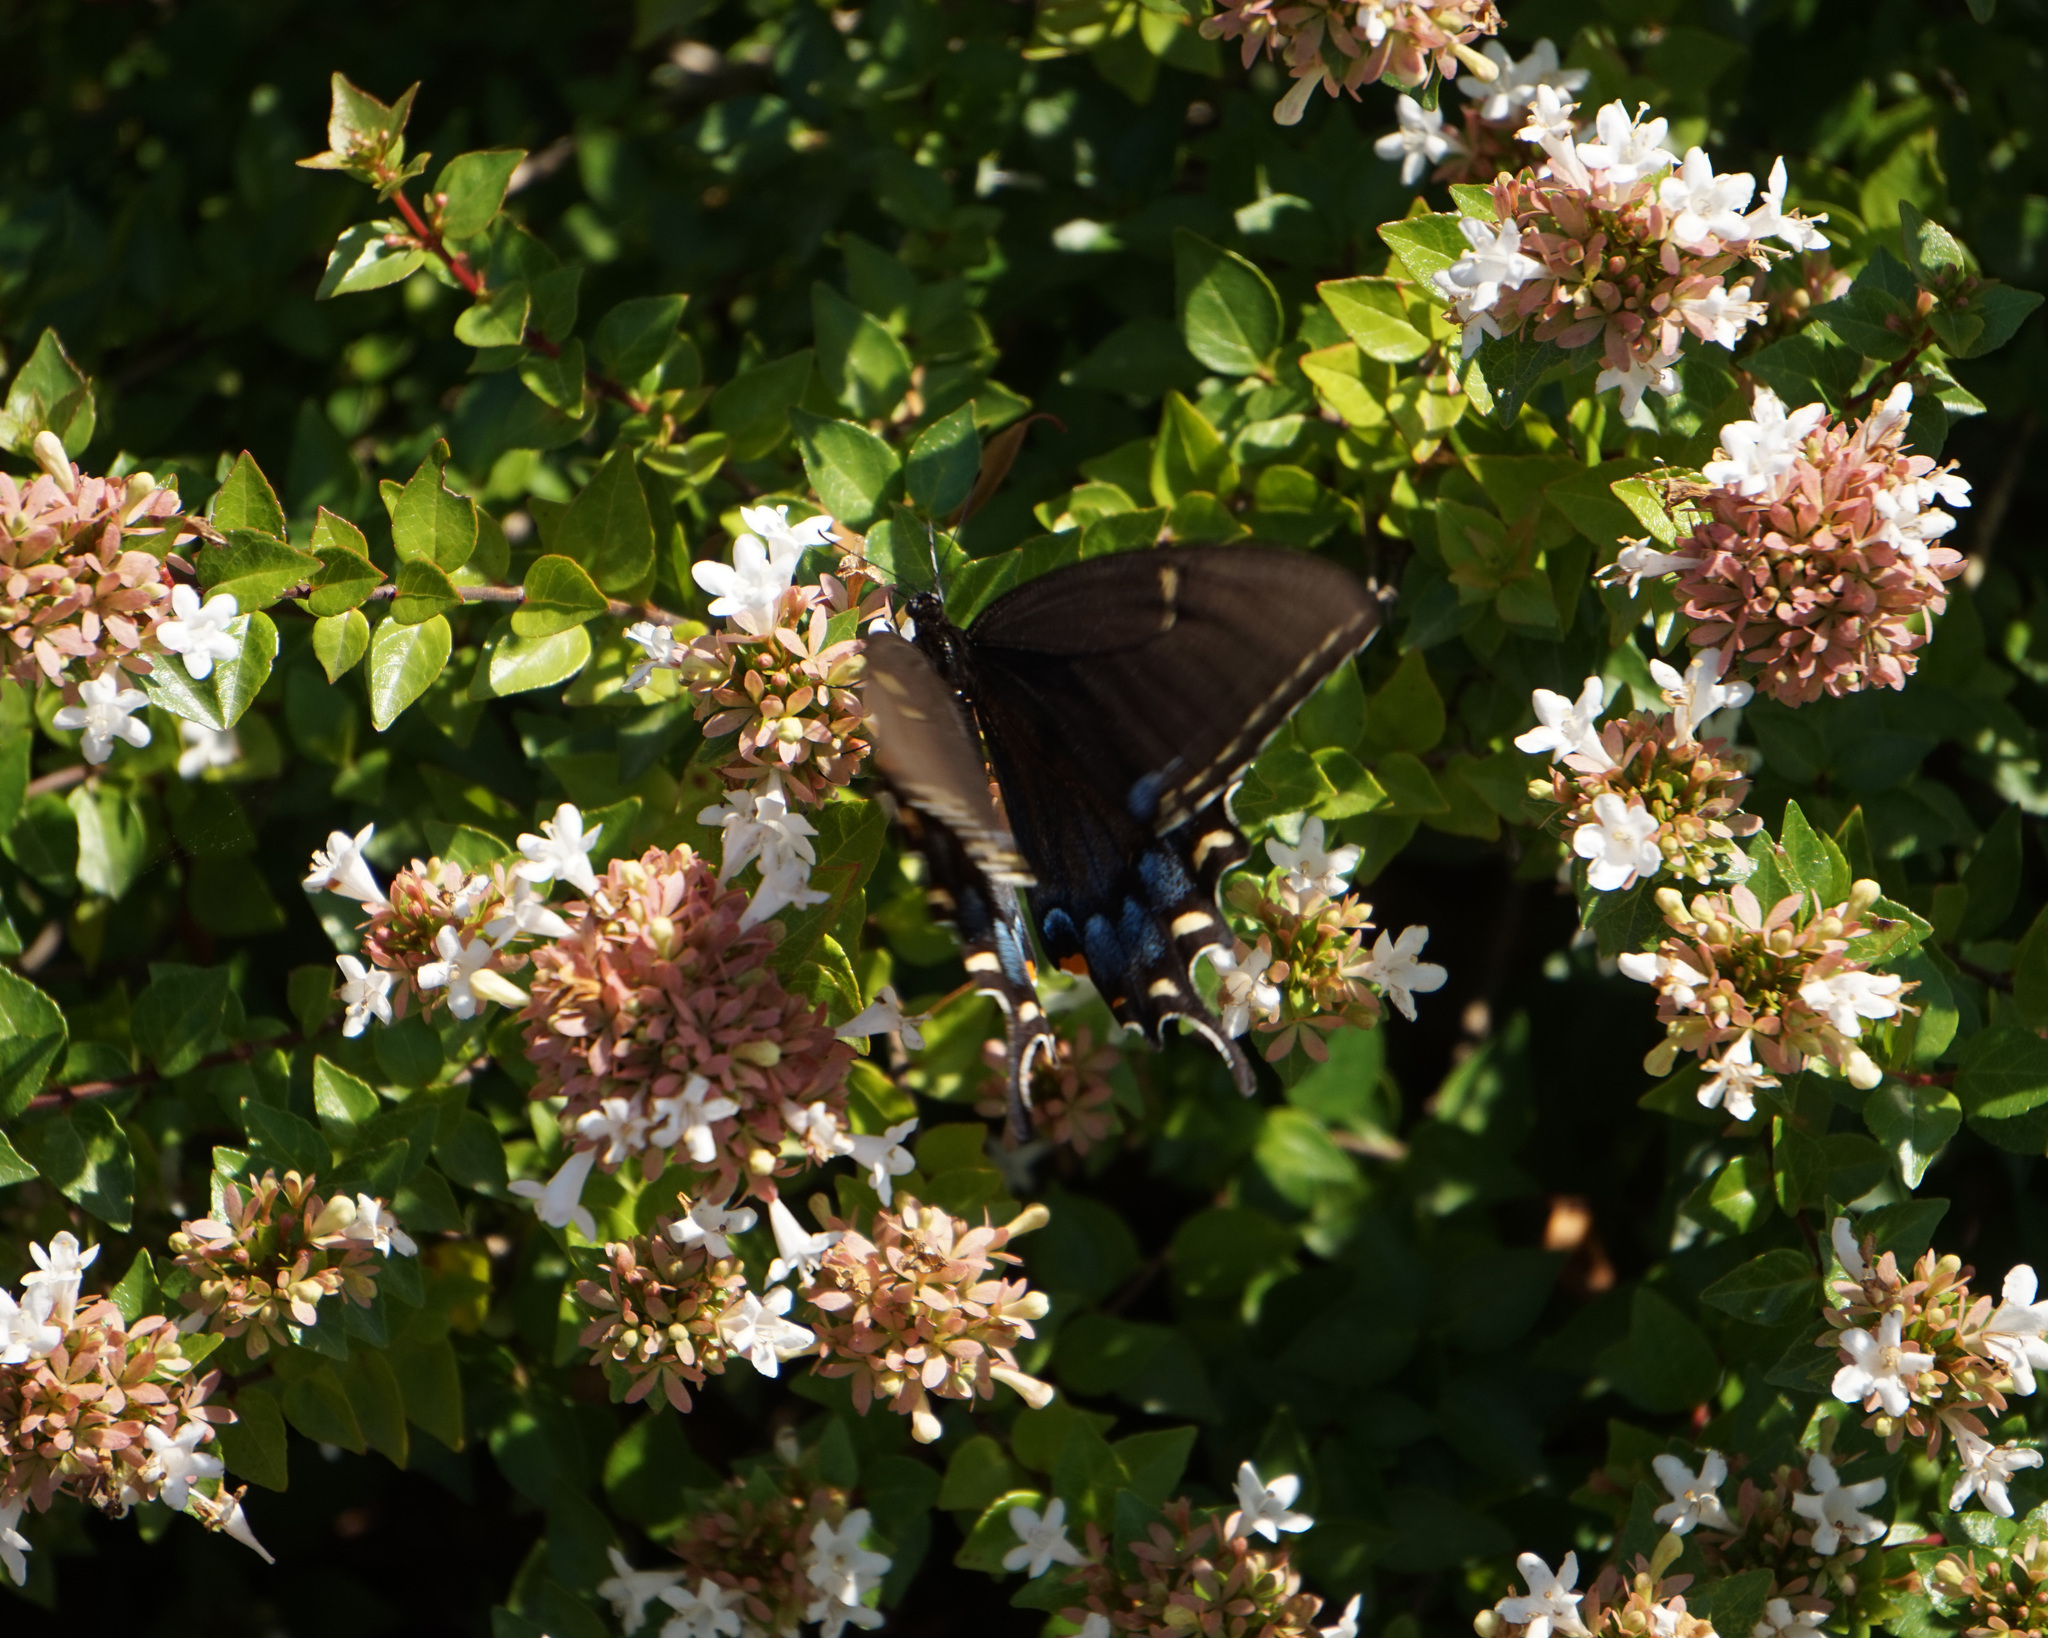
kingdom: Animalia
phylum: Arthropoda
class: Insecta
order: Lepidoptera
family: Papilionidae
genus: Papilio
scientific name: Papilio glaucus
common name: Tiger swallowtail
